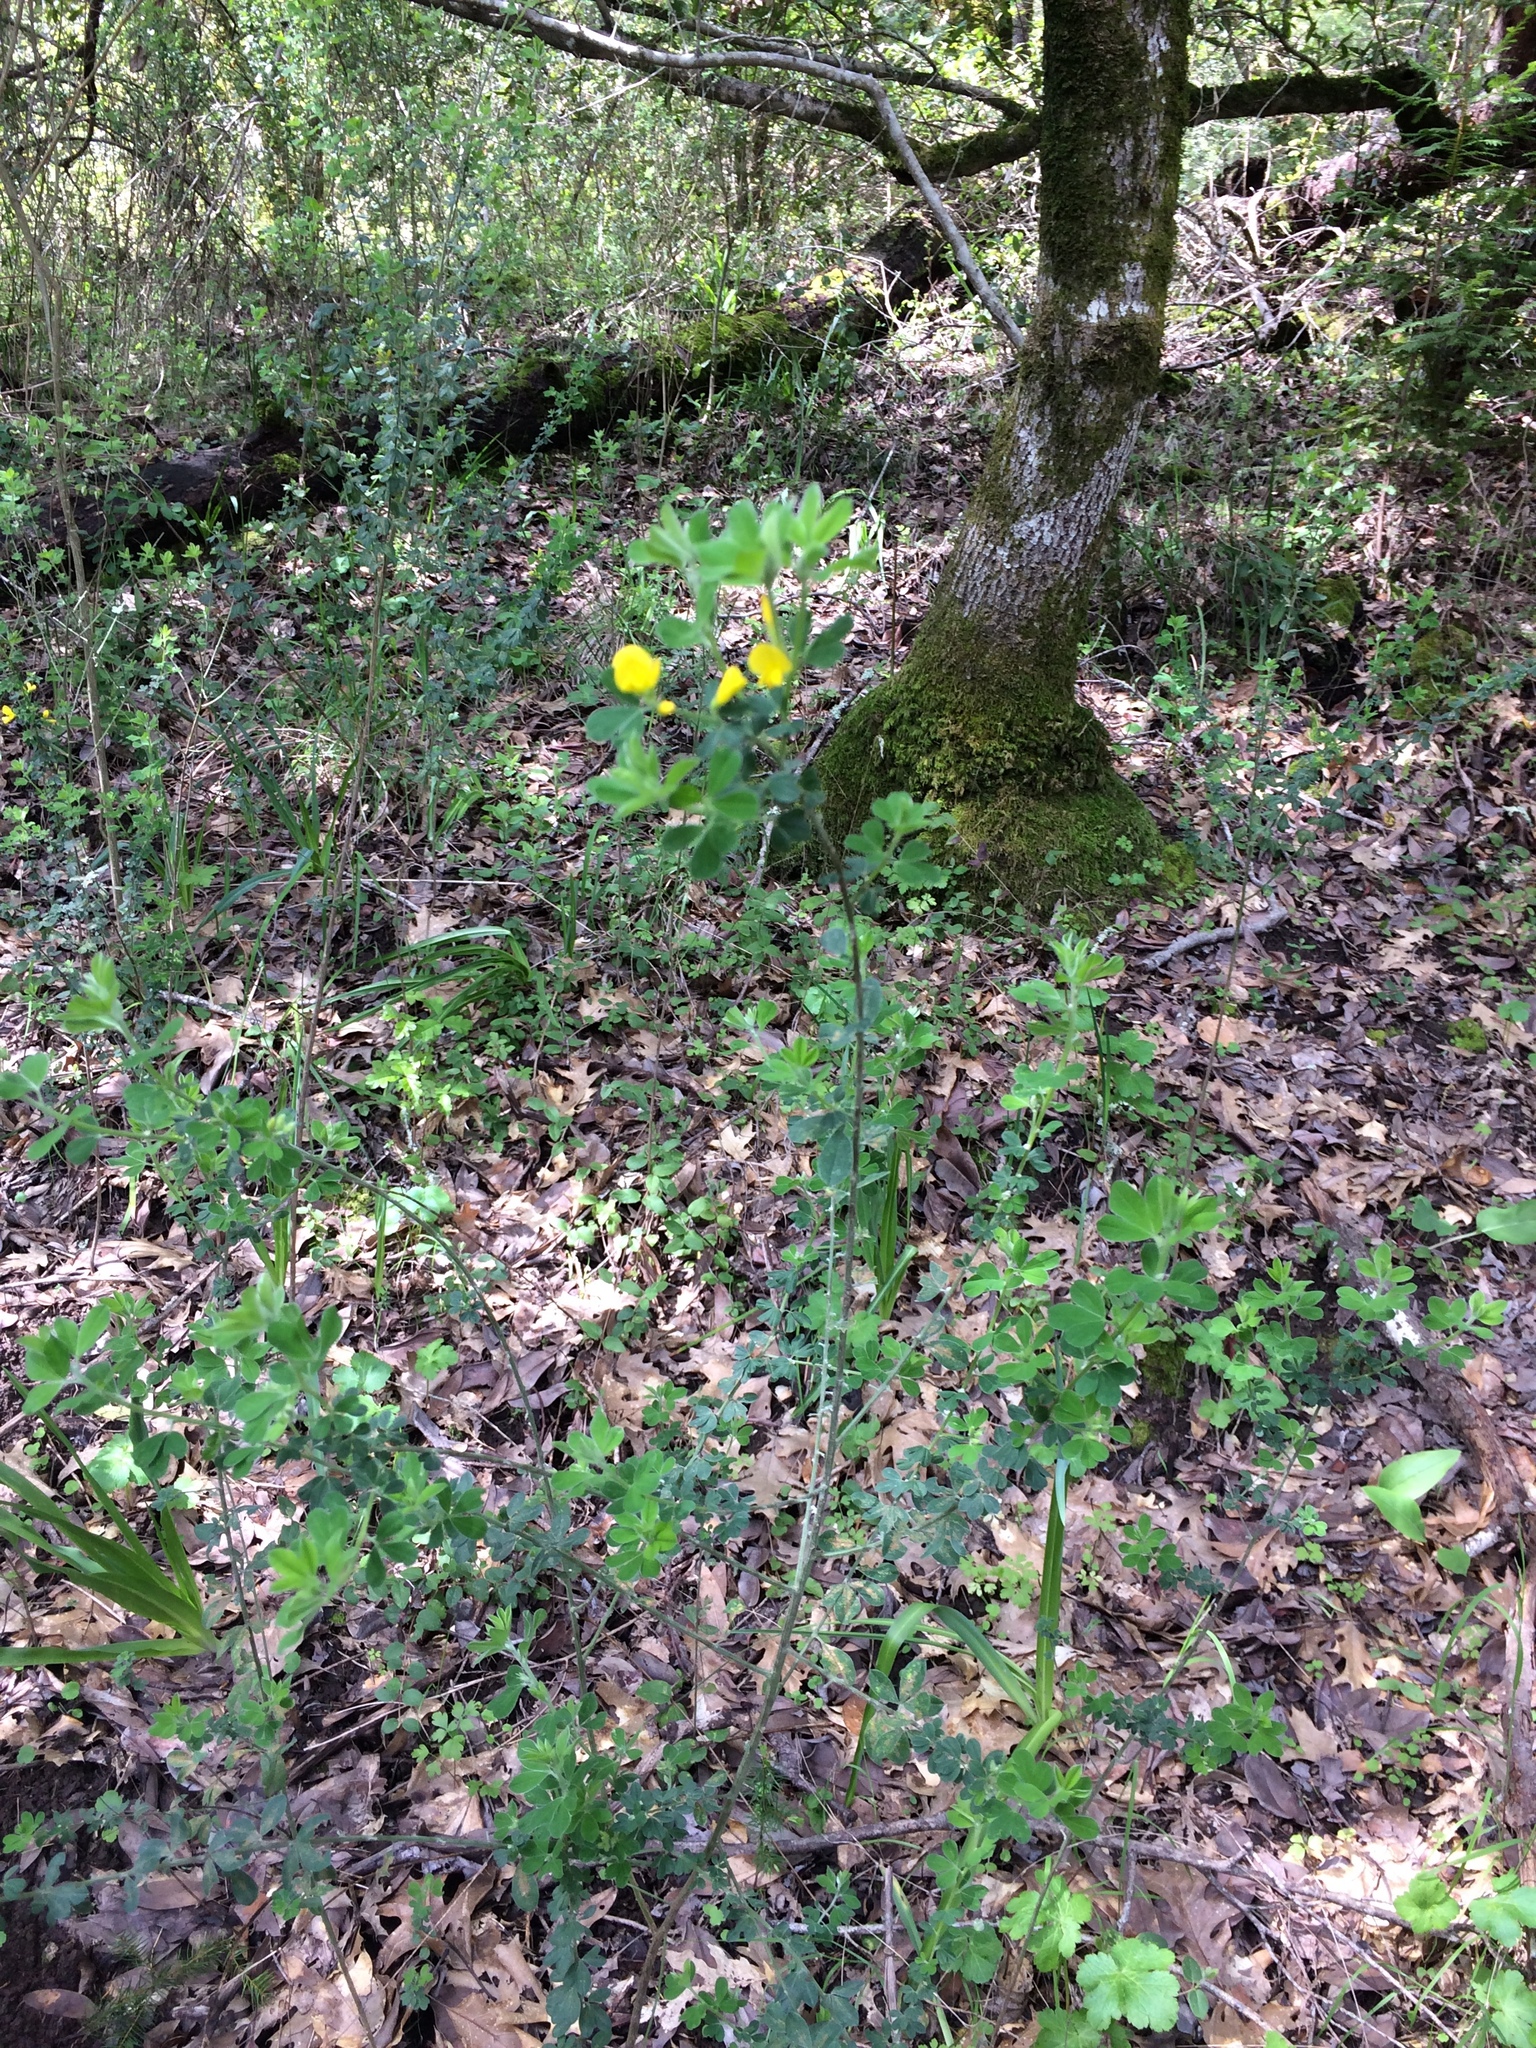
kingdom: Plantae
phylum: Tracheophyta
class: Magnoliopsida
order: Fabales
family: Fabaceae
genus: Genista
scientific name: Genista monspessulana
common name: Montpellier broom
